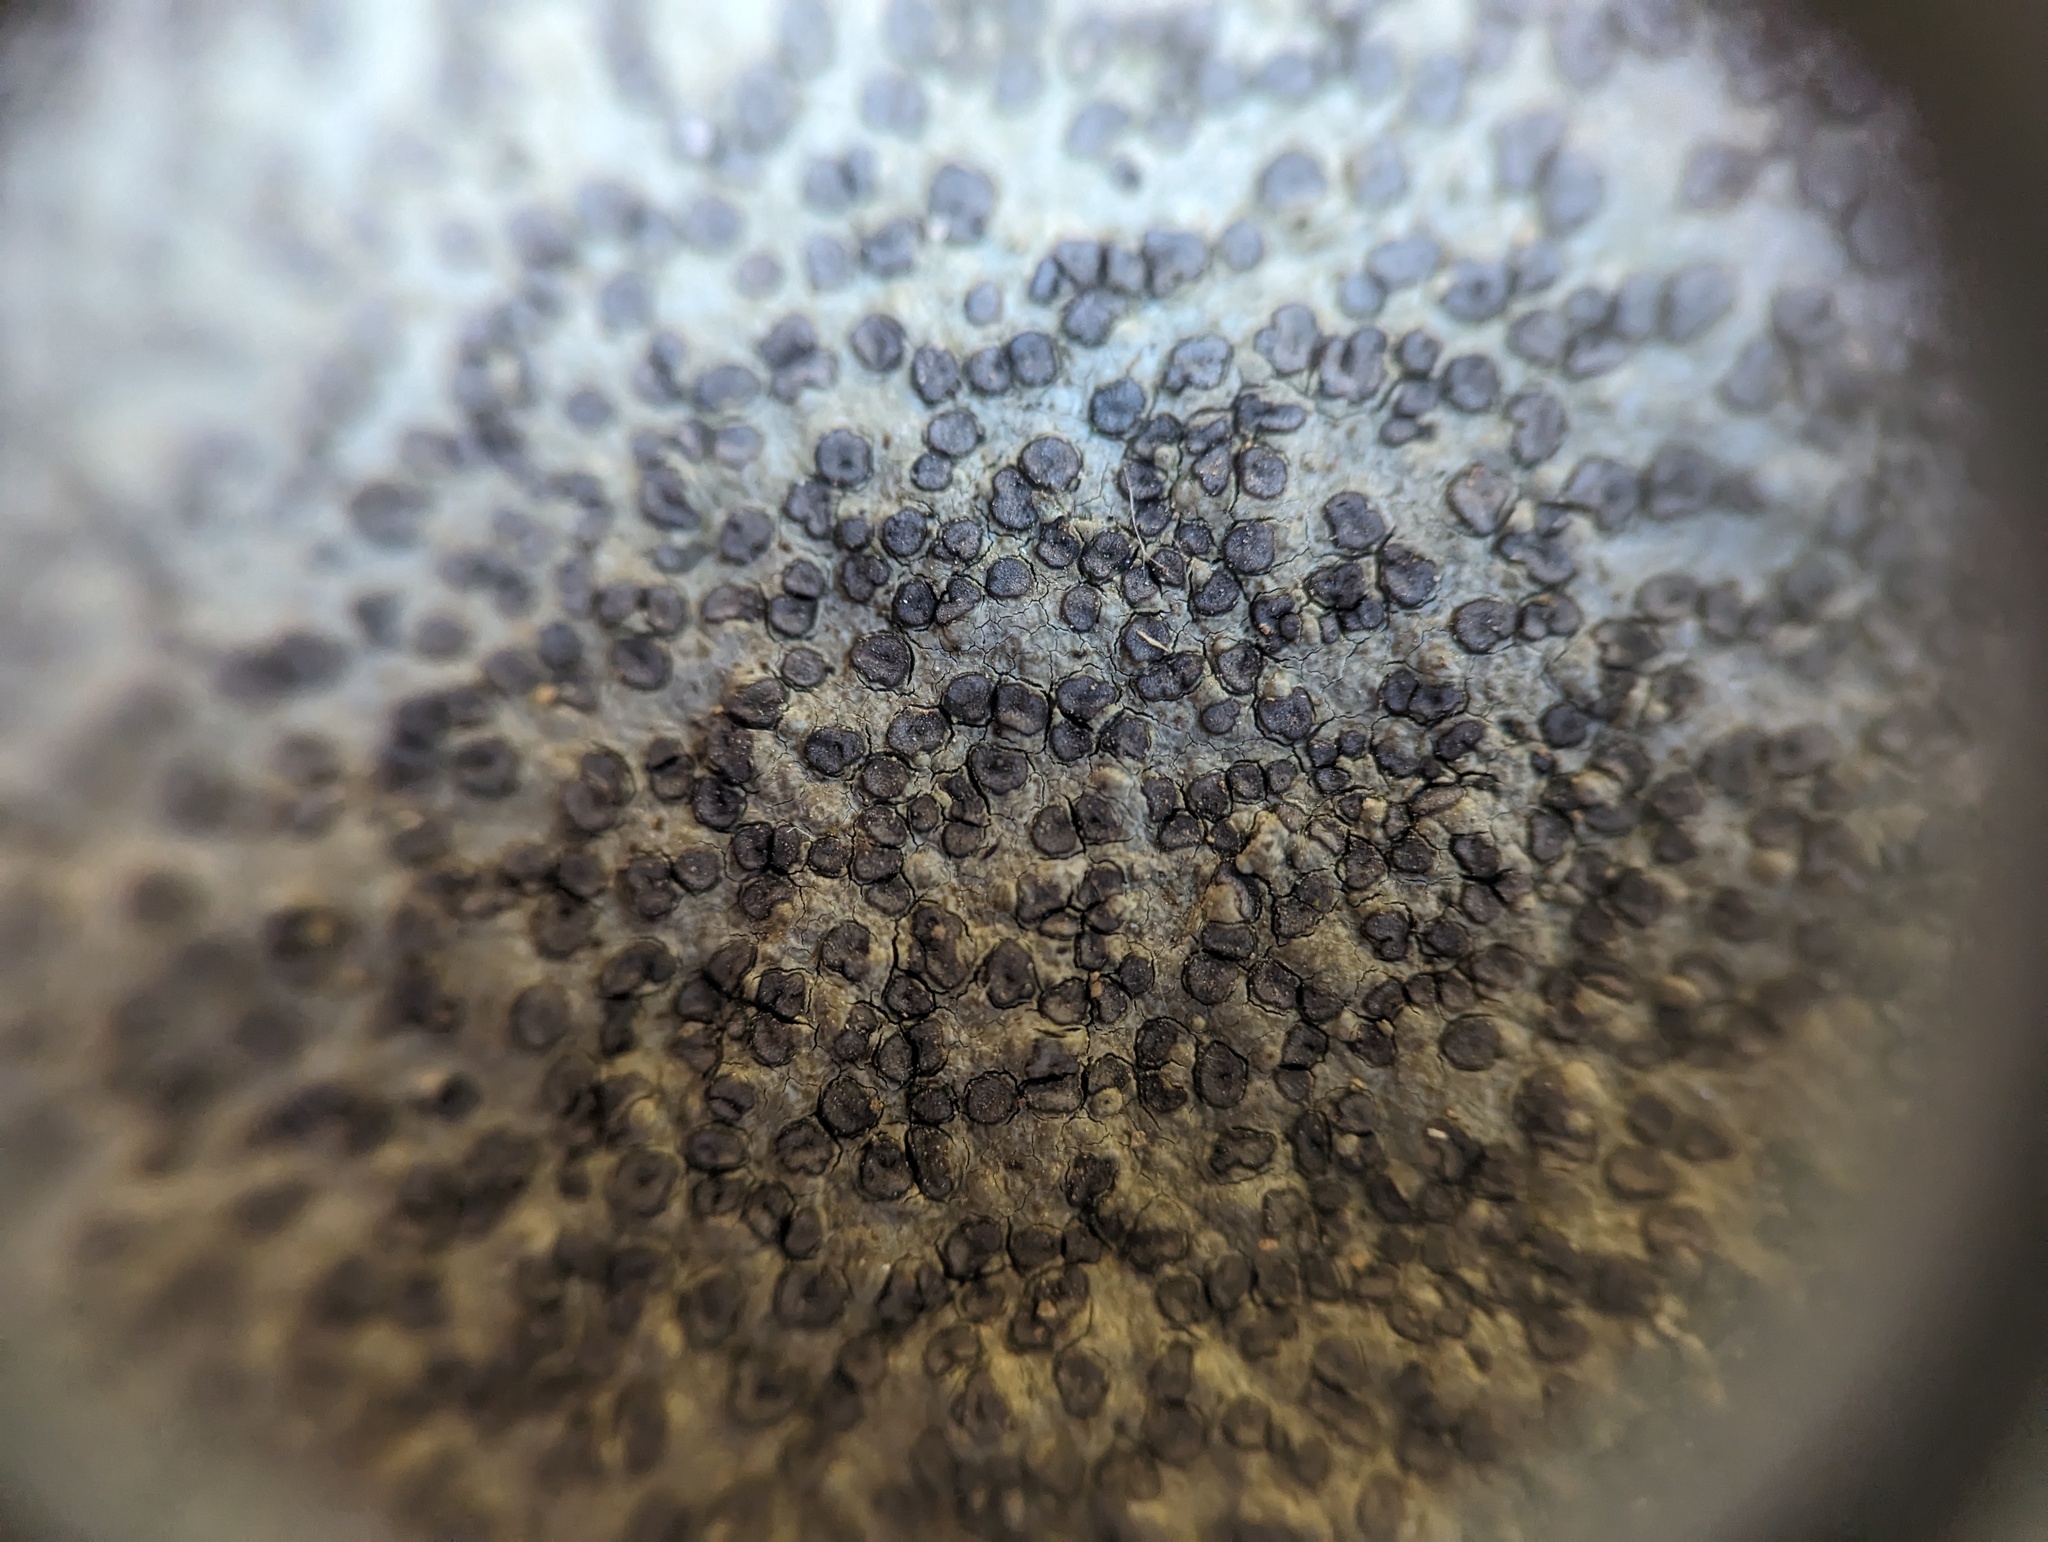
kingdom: Fungi
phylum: Ascomycota
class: Lecanoromycetes
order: Lecideales
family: Lecideaceae
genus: Porpidia
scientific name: Porpidia albocaerulescens
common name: Smokey-eyed boulder lichen
